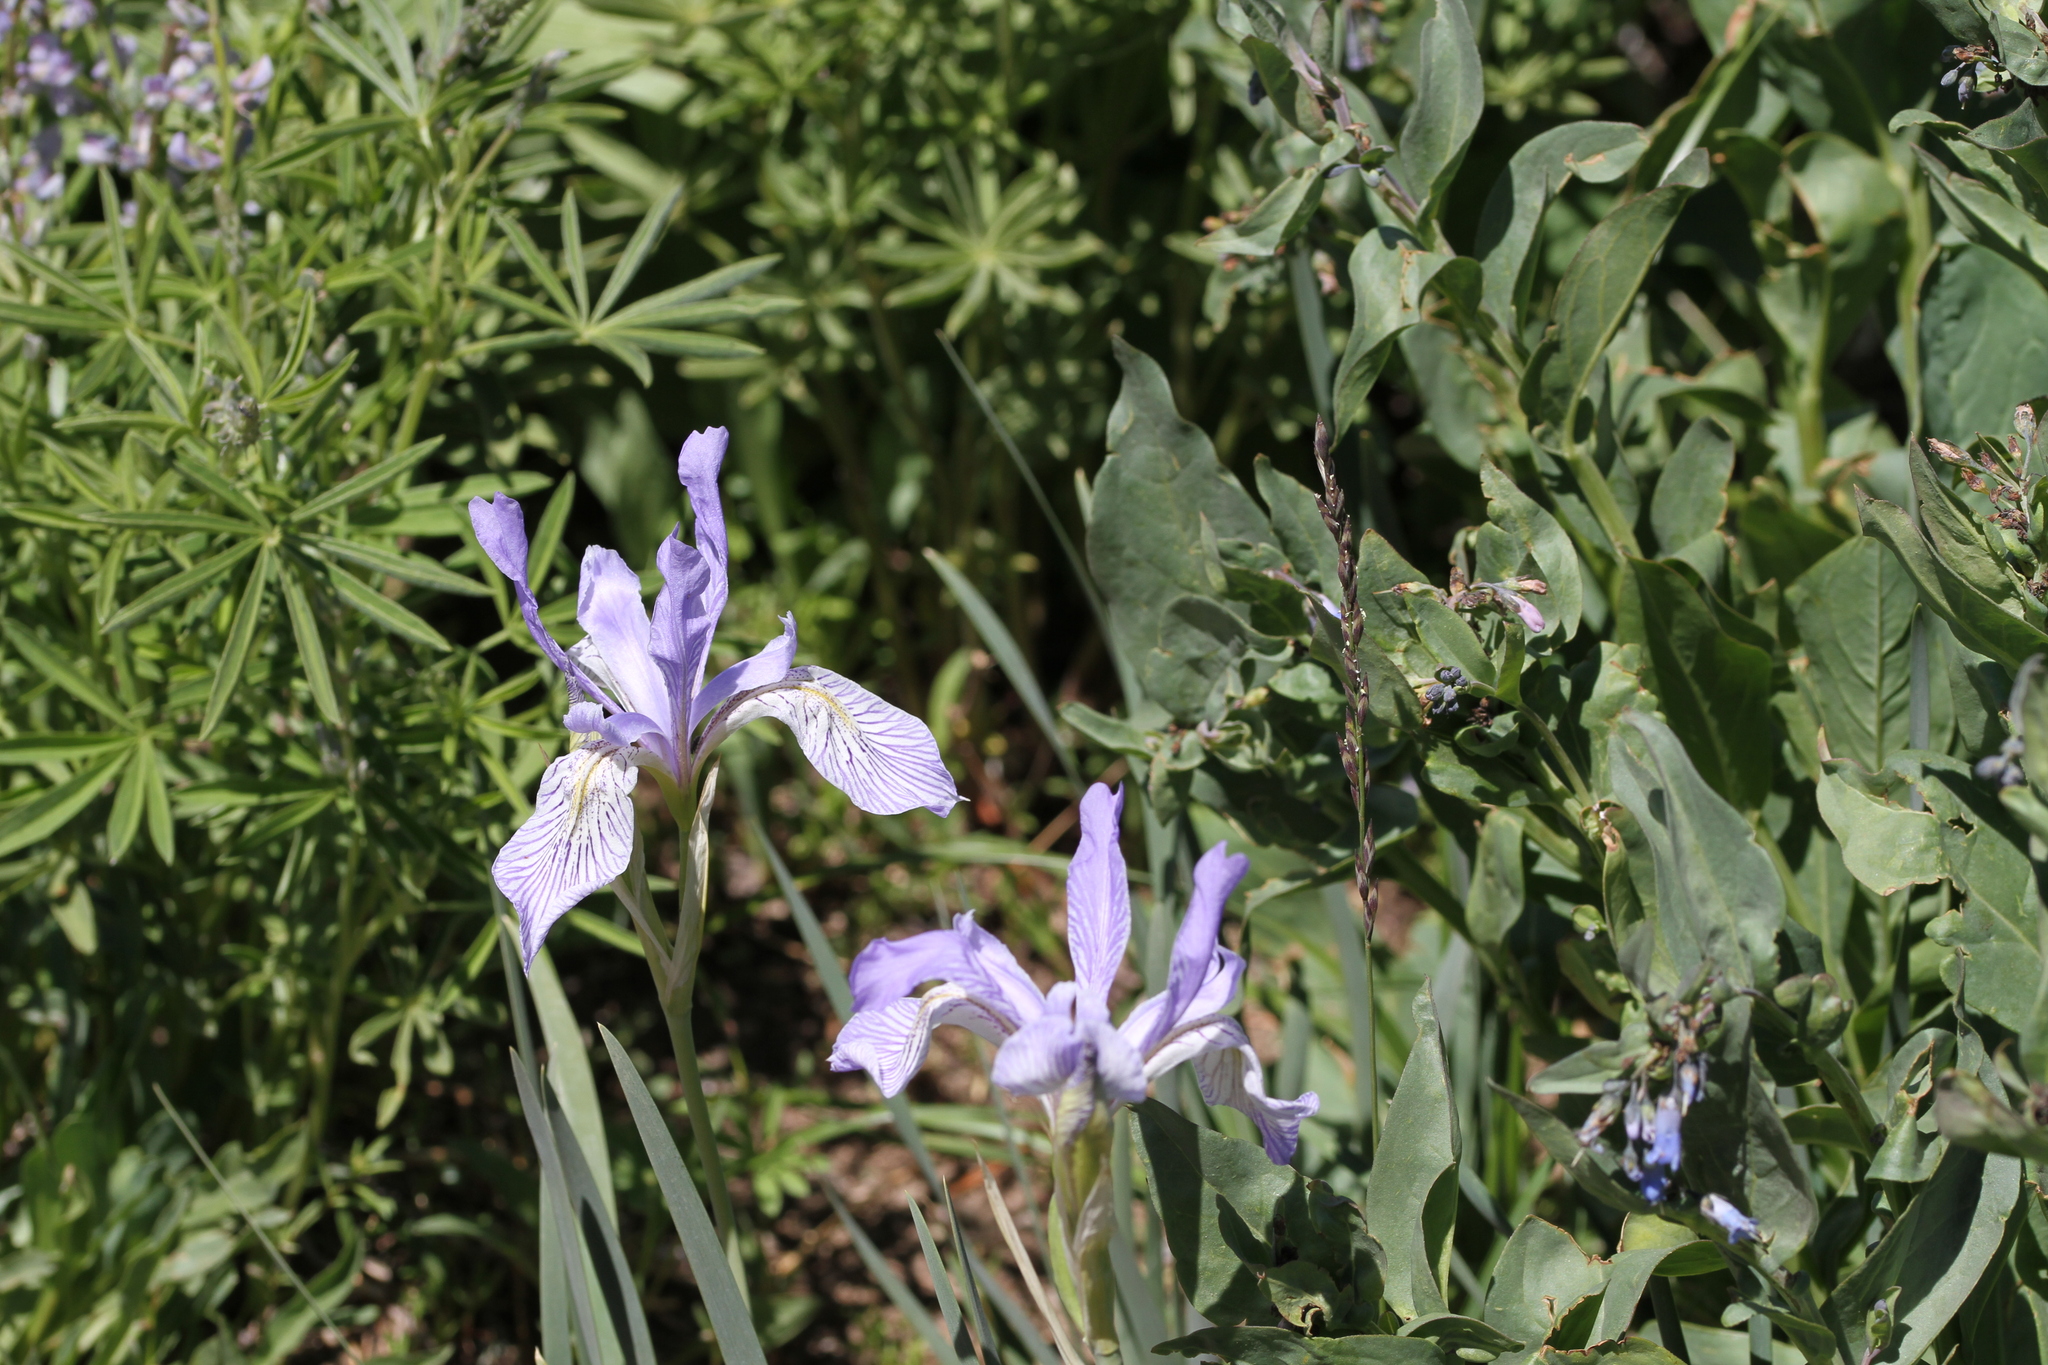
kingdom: Plantae
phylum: Tracheophyta
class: Liliopsida
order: Asparagales
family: Iridaceae
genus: Iris
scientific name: Iris missouriensis
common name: Rocky mountain iris
